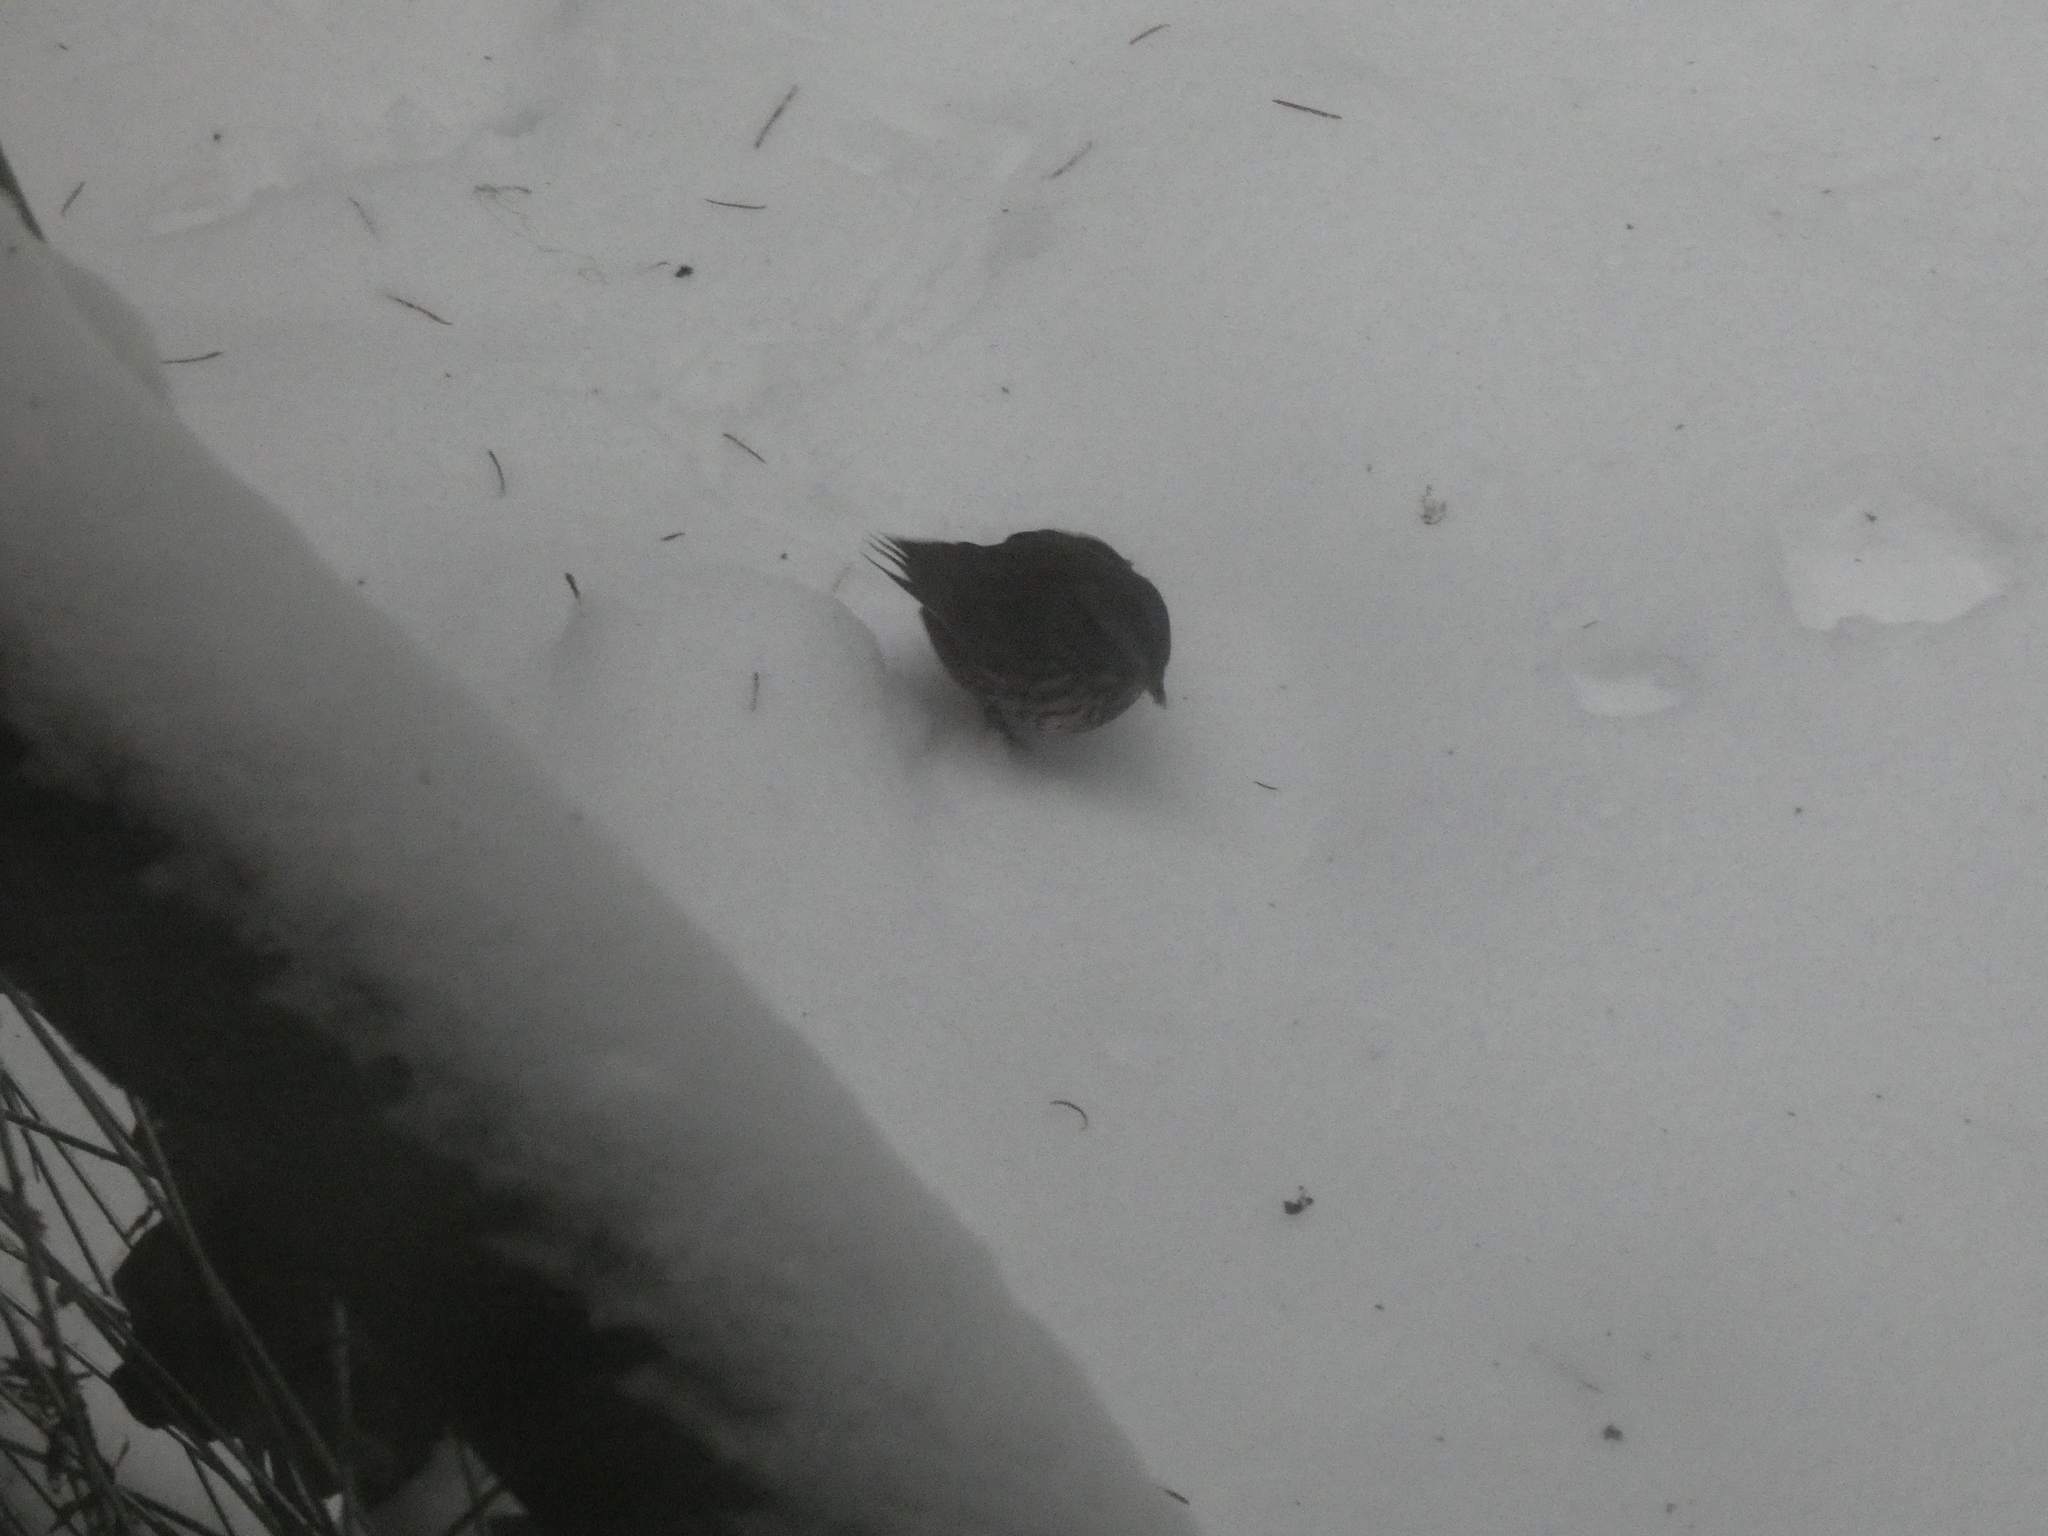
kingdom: Animalia
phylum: Chordata
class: Aves
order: Passeriformes
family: Passerellidae
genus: Melospiza
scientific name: Melospiza melodia
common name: Song sparrow
